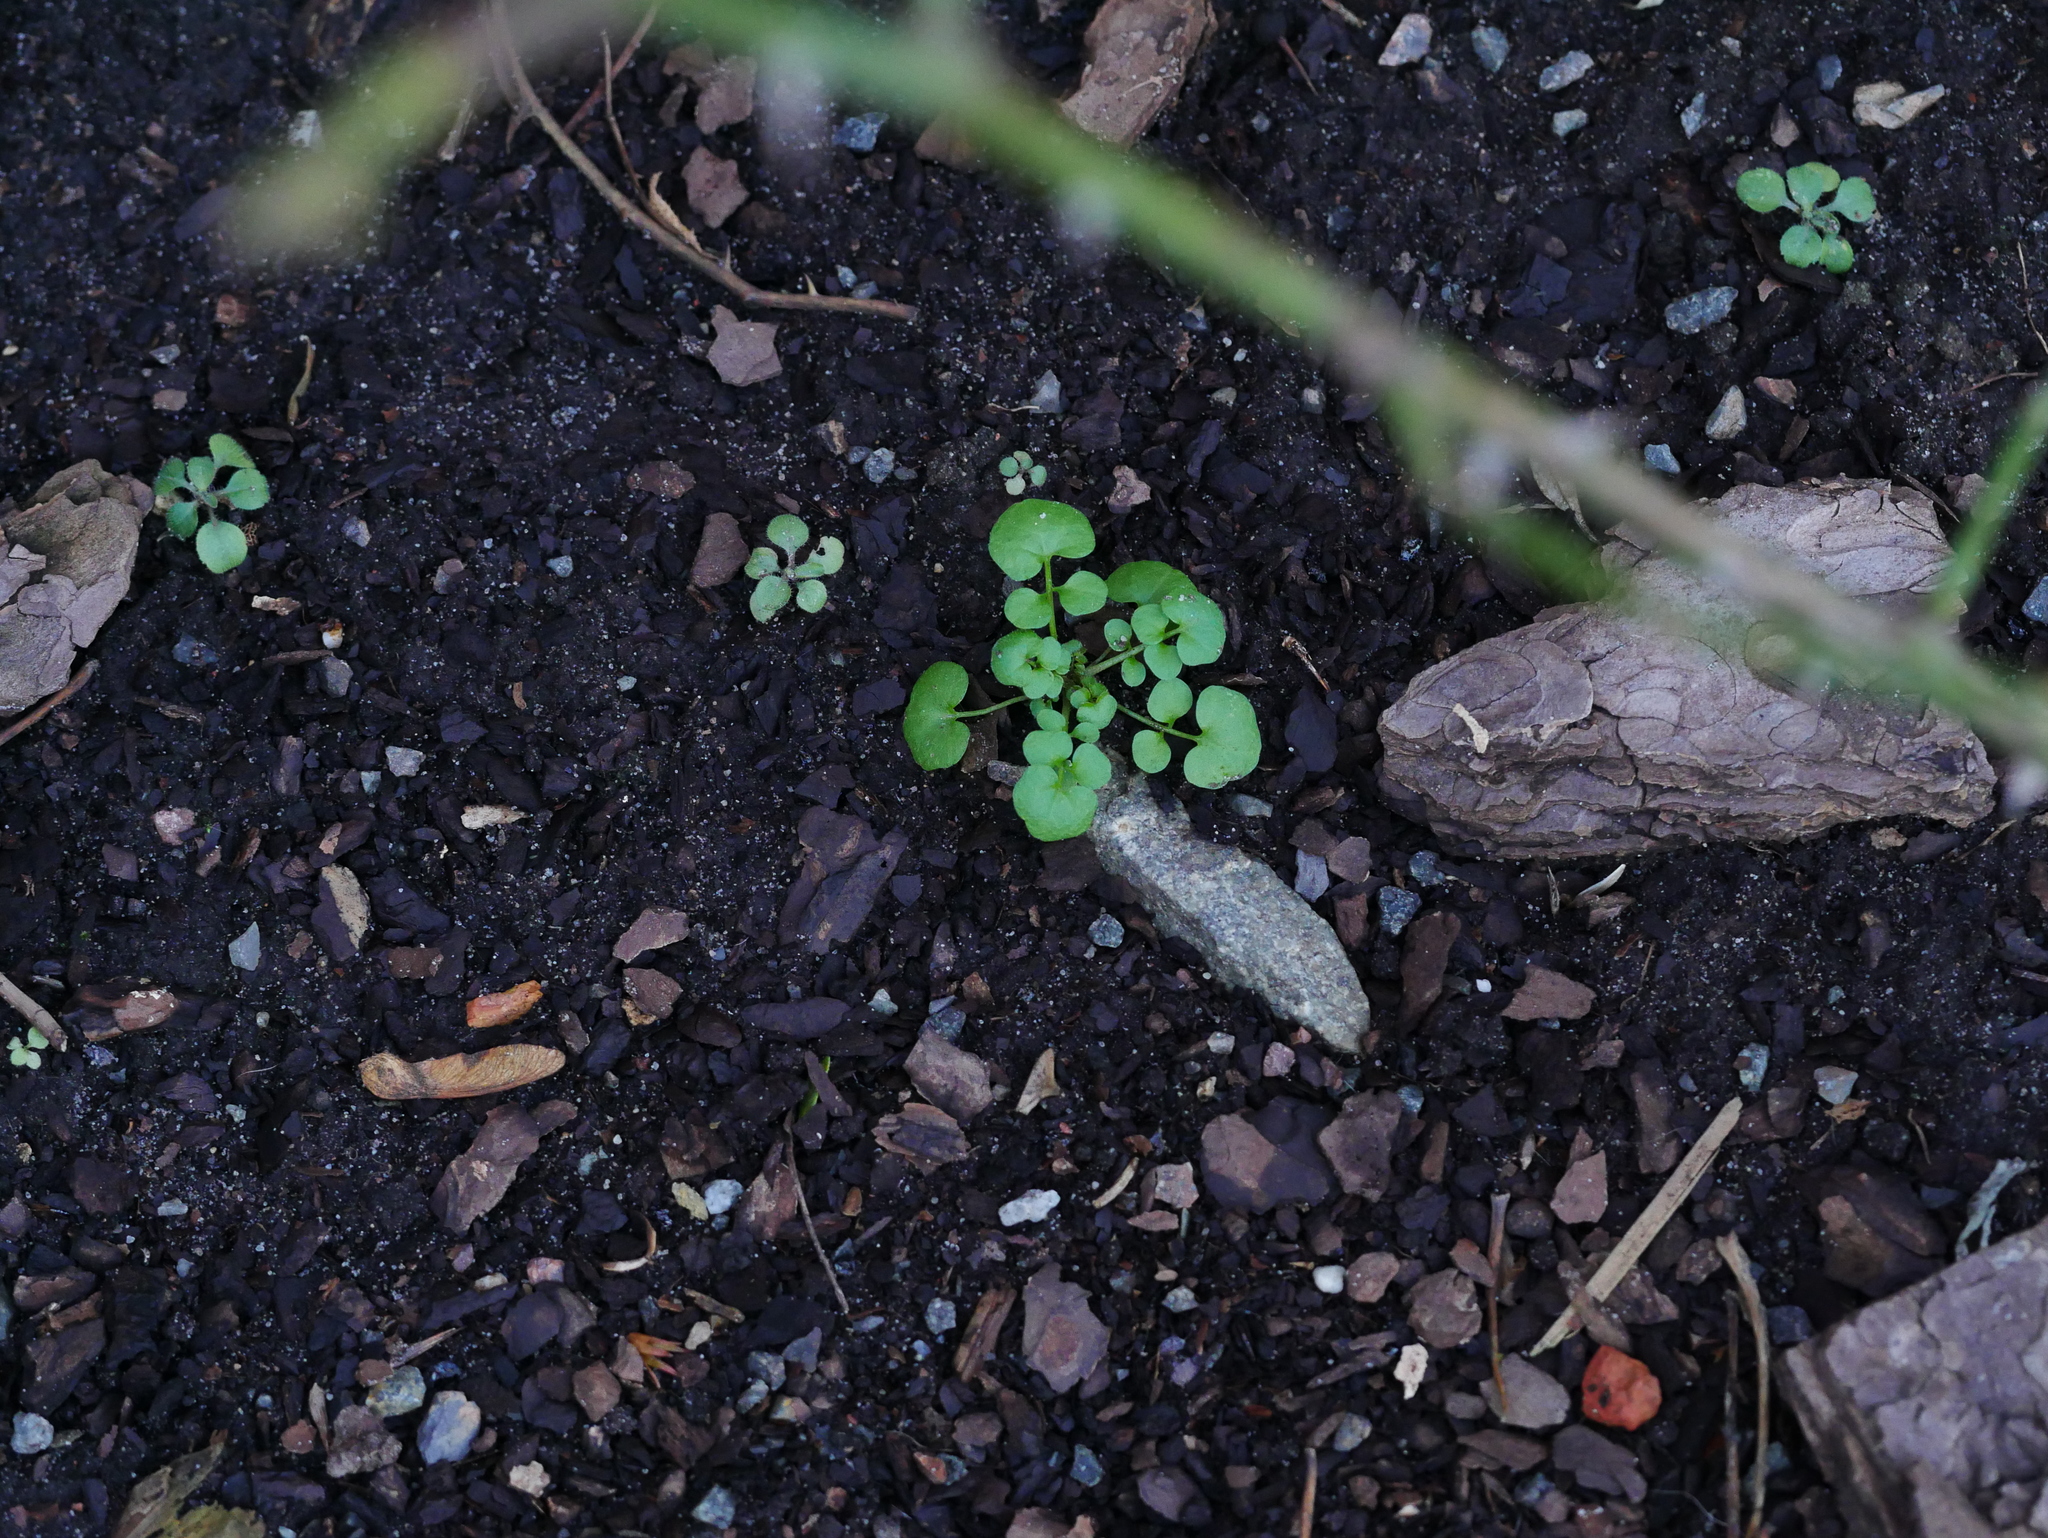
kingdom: Plantae
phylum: Tracheophyta
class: Magnoliopsida
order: Brassicales
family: Brassicaceae
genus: Cardamine
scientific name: Cardamine hirsuta
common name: Hairy bittercress
